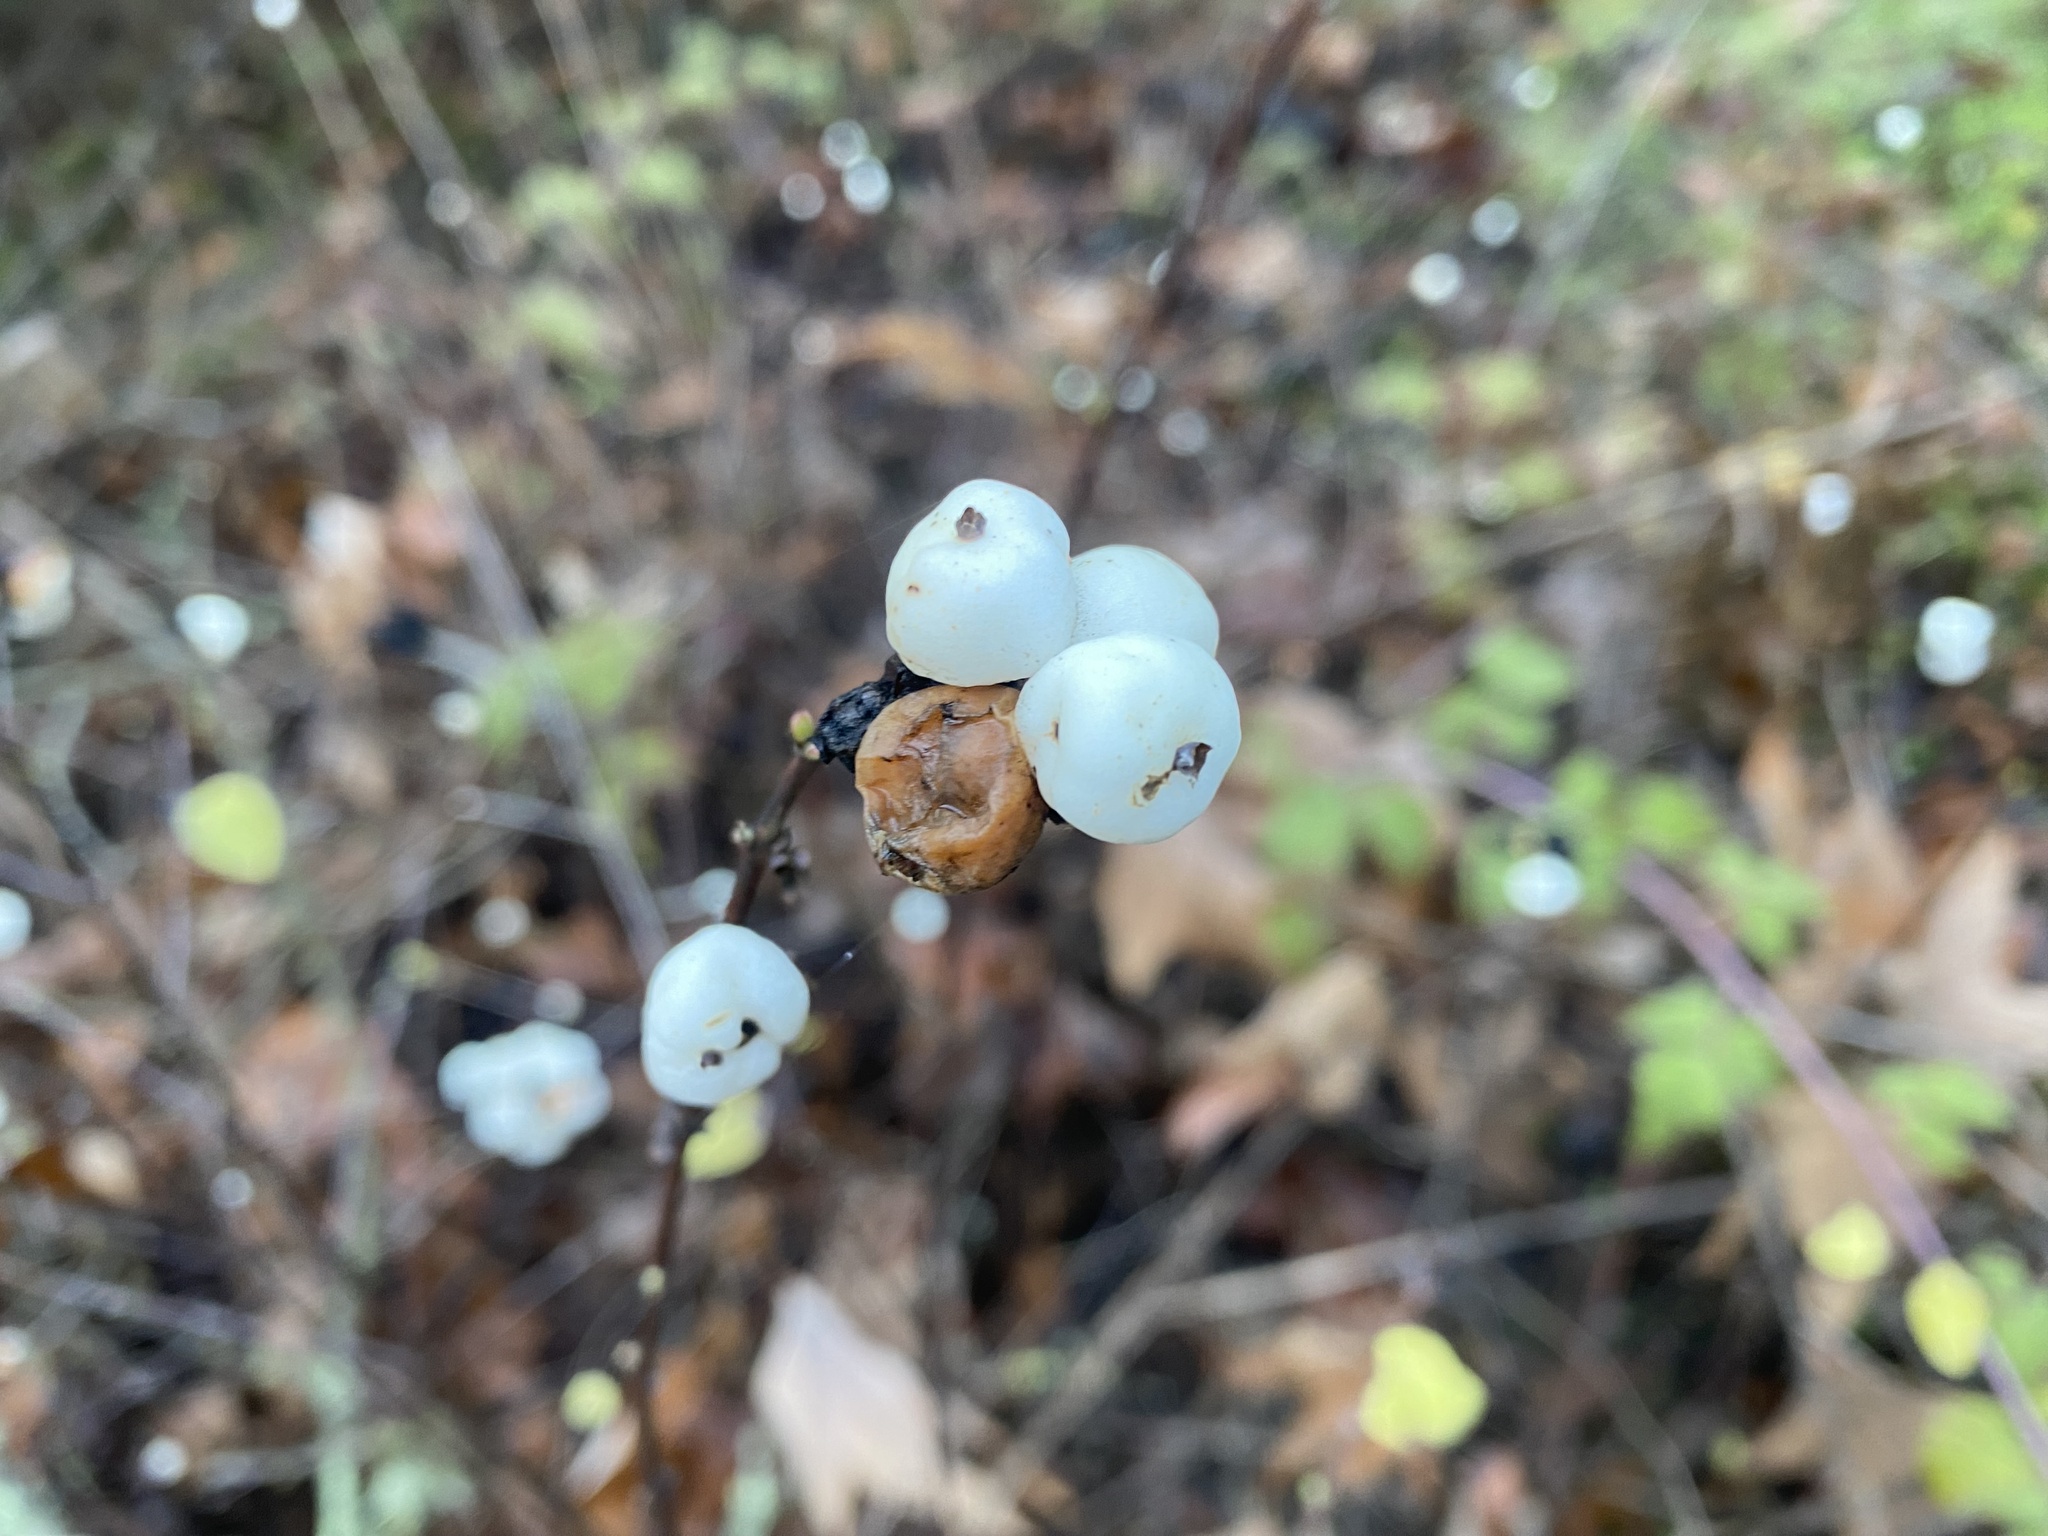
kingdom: Plantae
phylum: Tracheophyta
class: Magnoliopsida
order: Dipsacales
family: Caprifoliaceae
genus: Symphoricarpos
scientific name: Symphoricarpos albus
